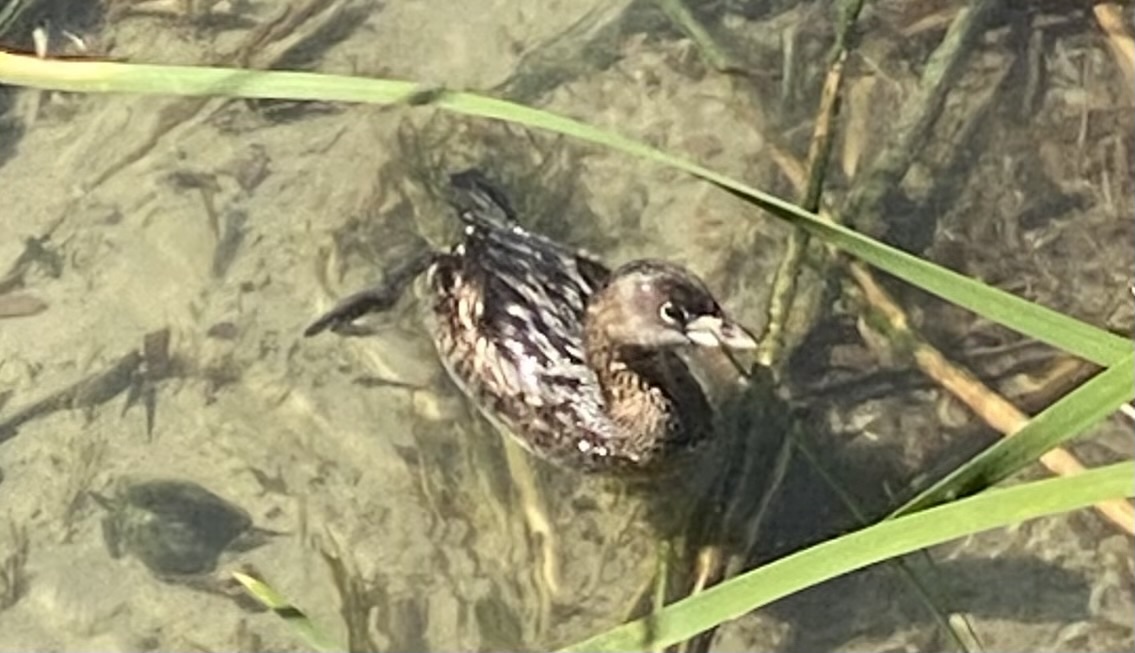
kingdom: Animalia
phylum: Chordata
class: Aves
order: Podicipediformes
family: Podicipedidae
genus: Podilymbus
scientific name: Podilymbus podiceps
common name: Pied-billed grebe
